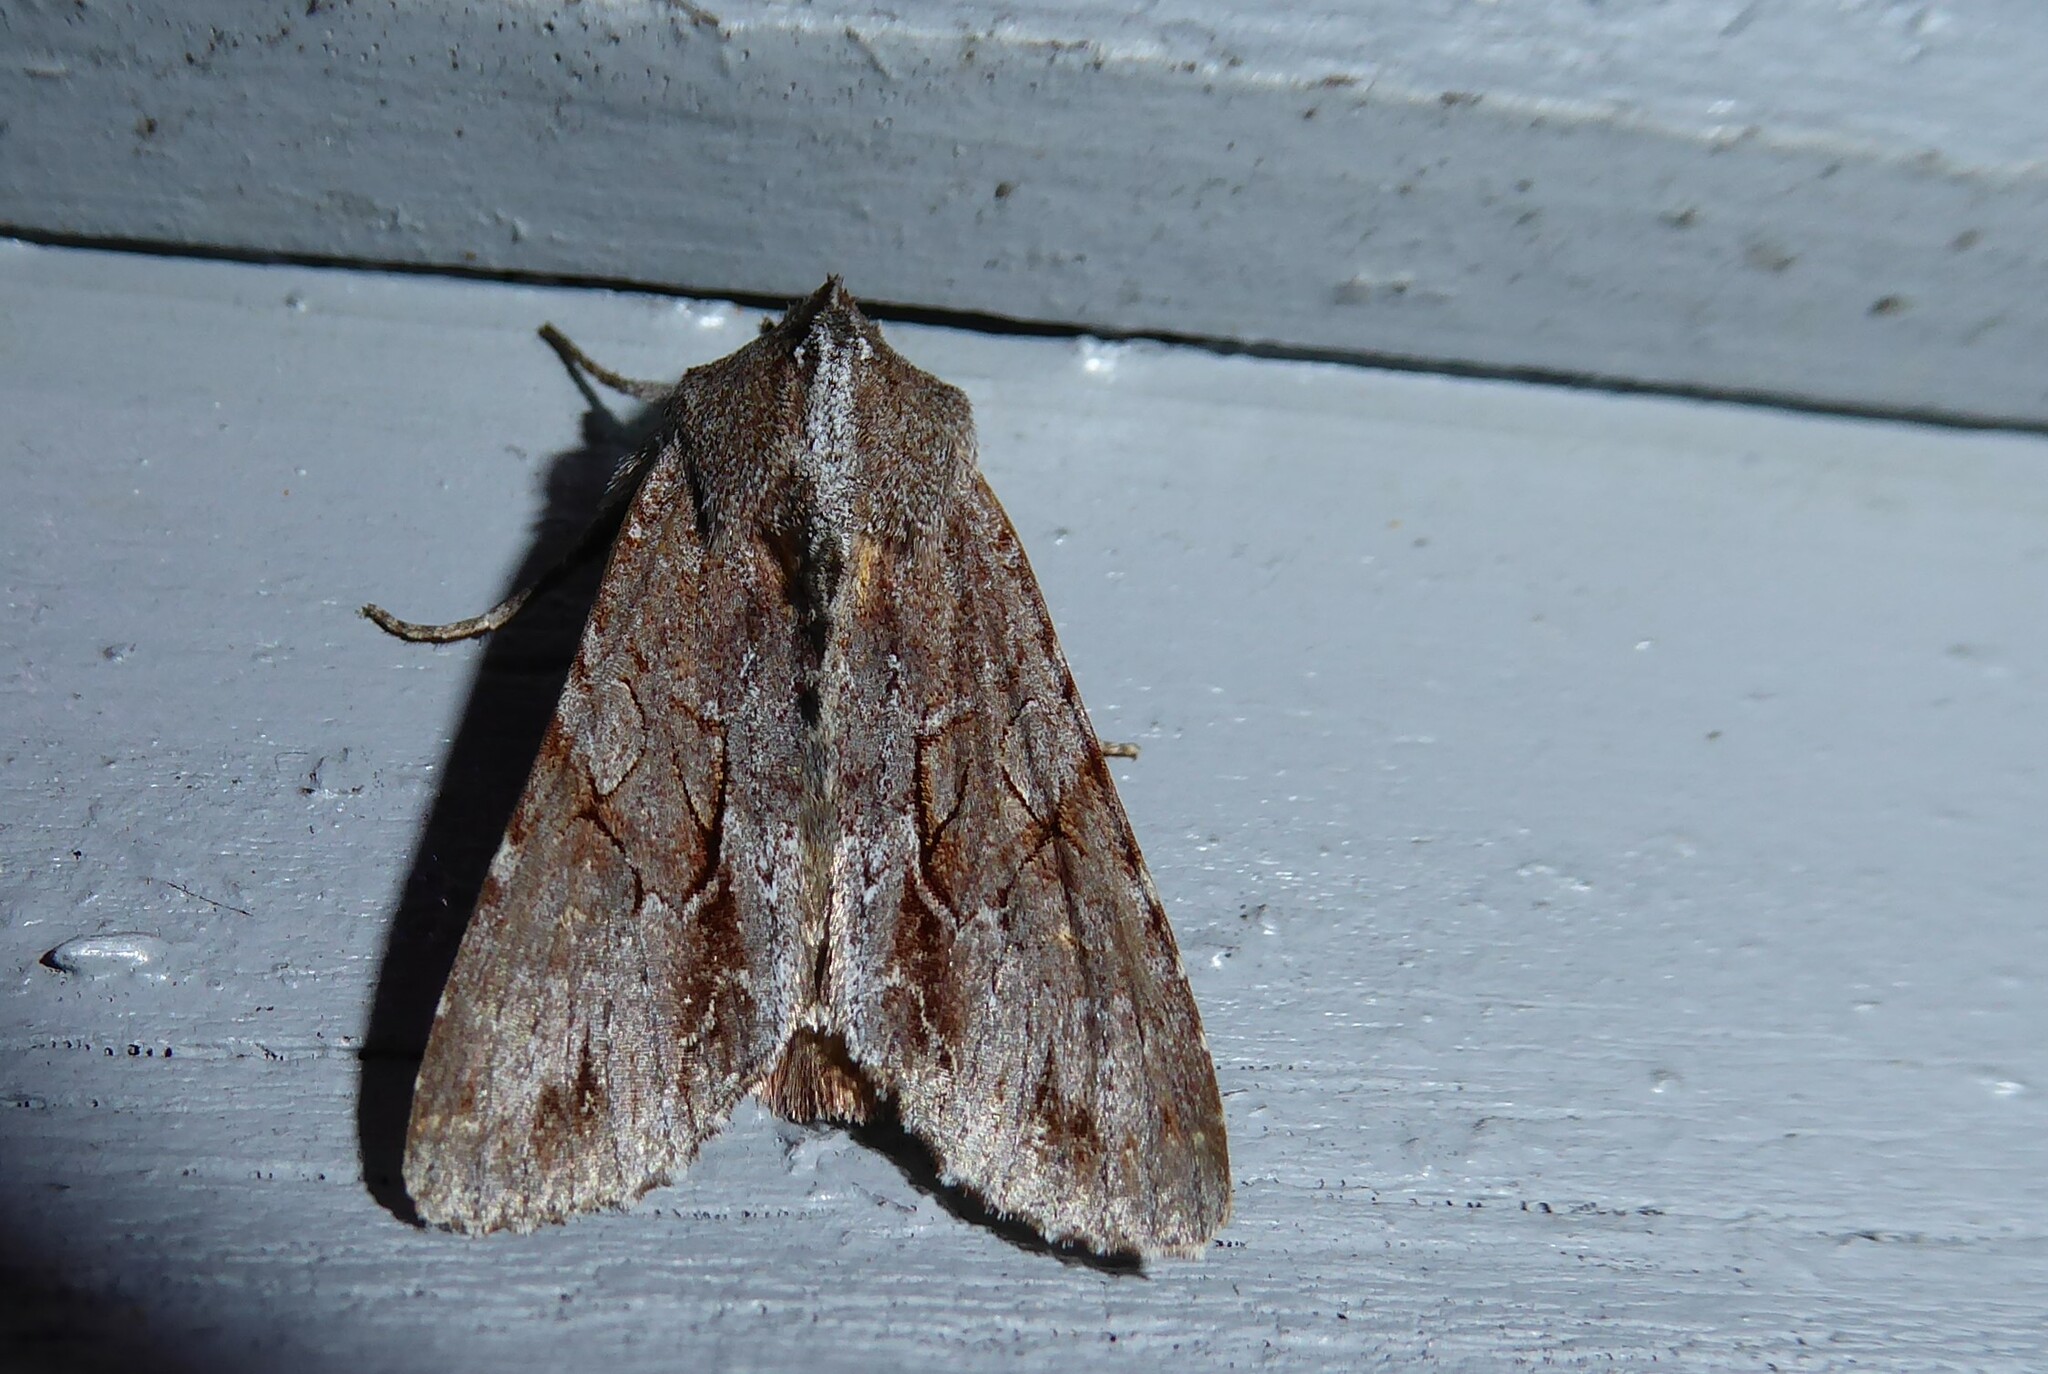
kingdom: Animalia
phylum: Arthropoda
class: Insecta
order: Lepidoptera
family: Noctuidae
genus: Ichneutica
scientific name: Ichneutica
